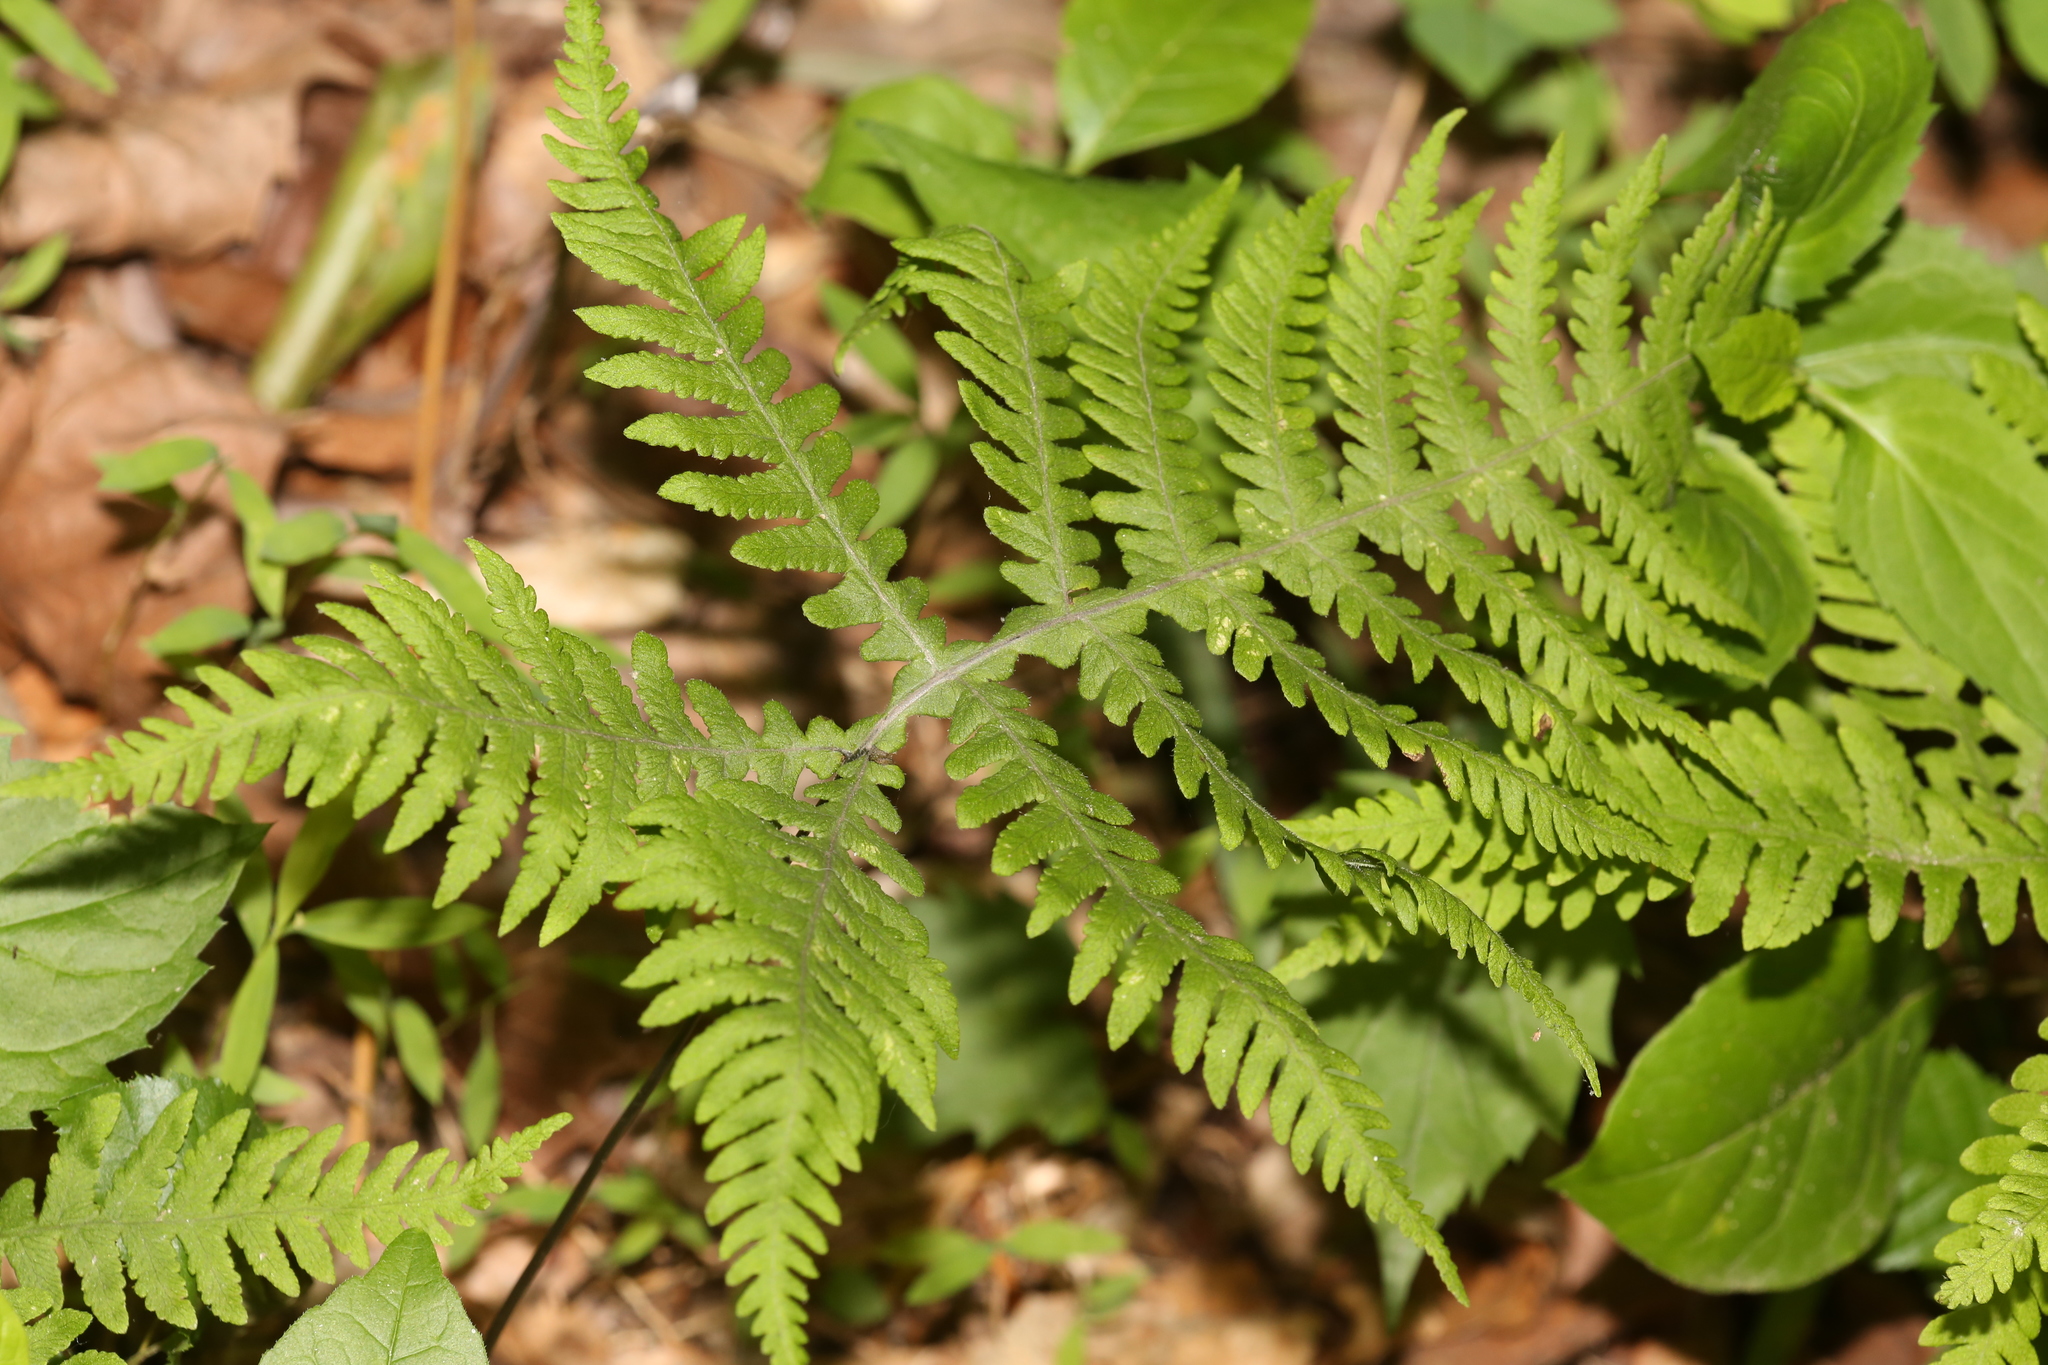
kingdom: Plantae
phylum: Tracheophyta
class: Polypodiopsida
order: Polypodiales
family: Thelypteridaceae
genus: Phegopteris
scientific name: Phegopteris hexagonoptera
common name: Broad beech fern
